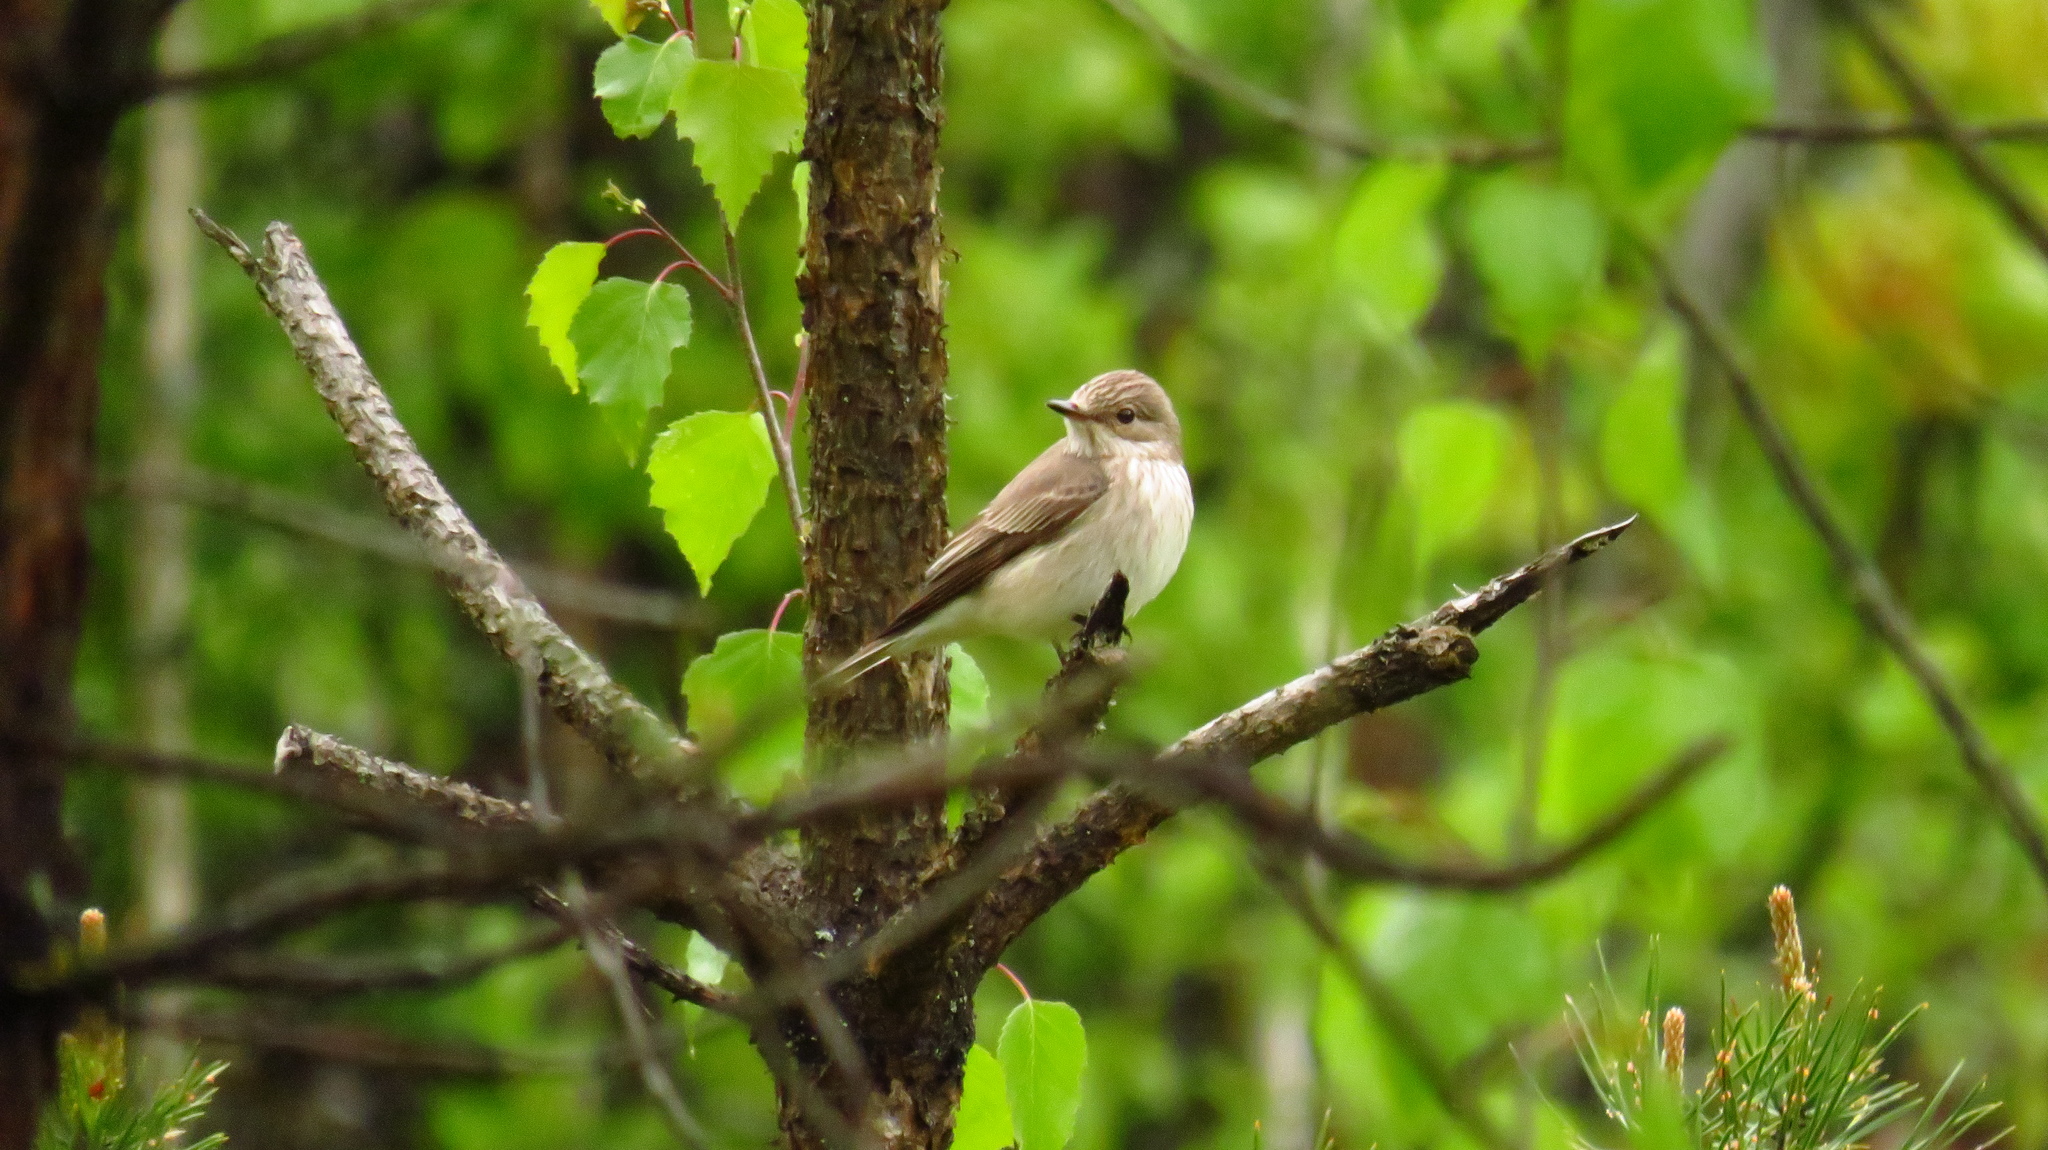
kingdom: Animalia
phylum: Chordata
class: Aves
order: Passeriformes
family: Muscicapidae
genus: Muscicapa
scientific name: Muscicapa striata
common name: Spotted flycatcher
